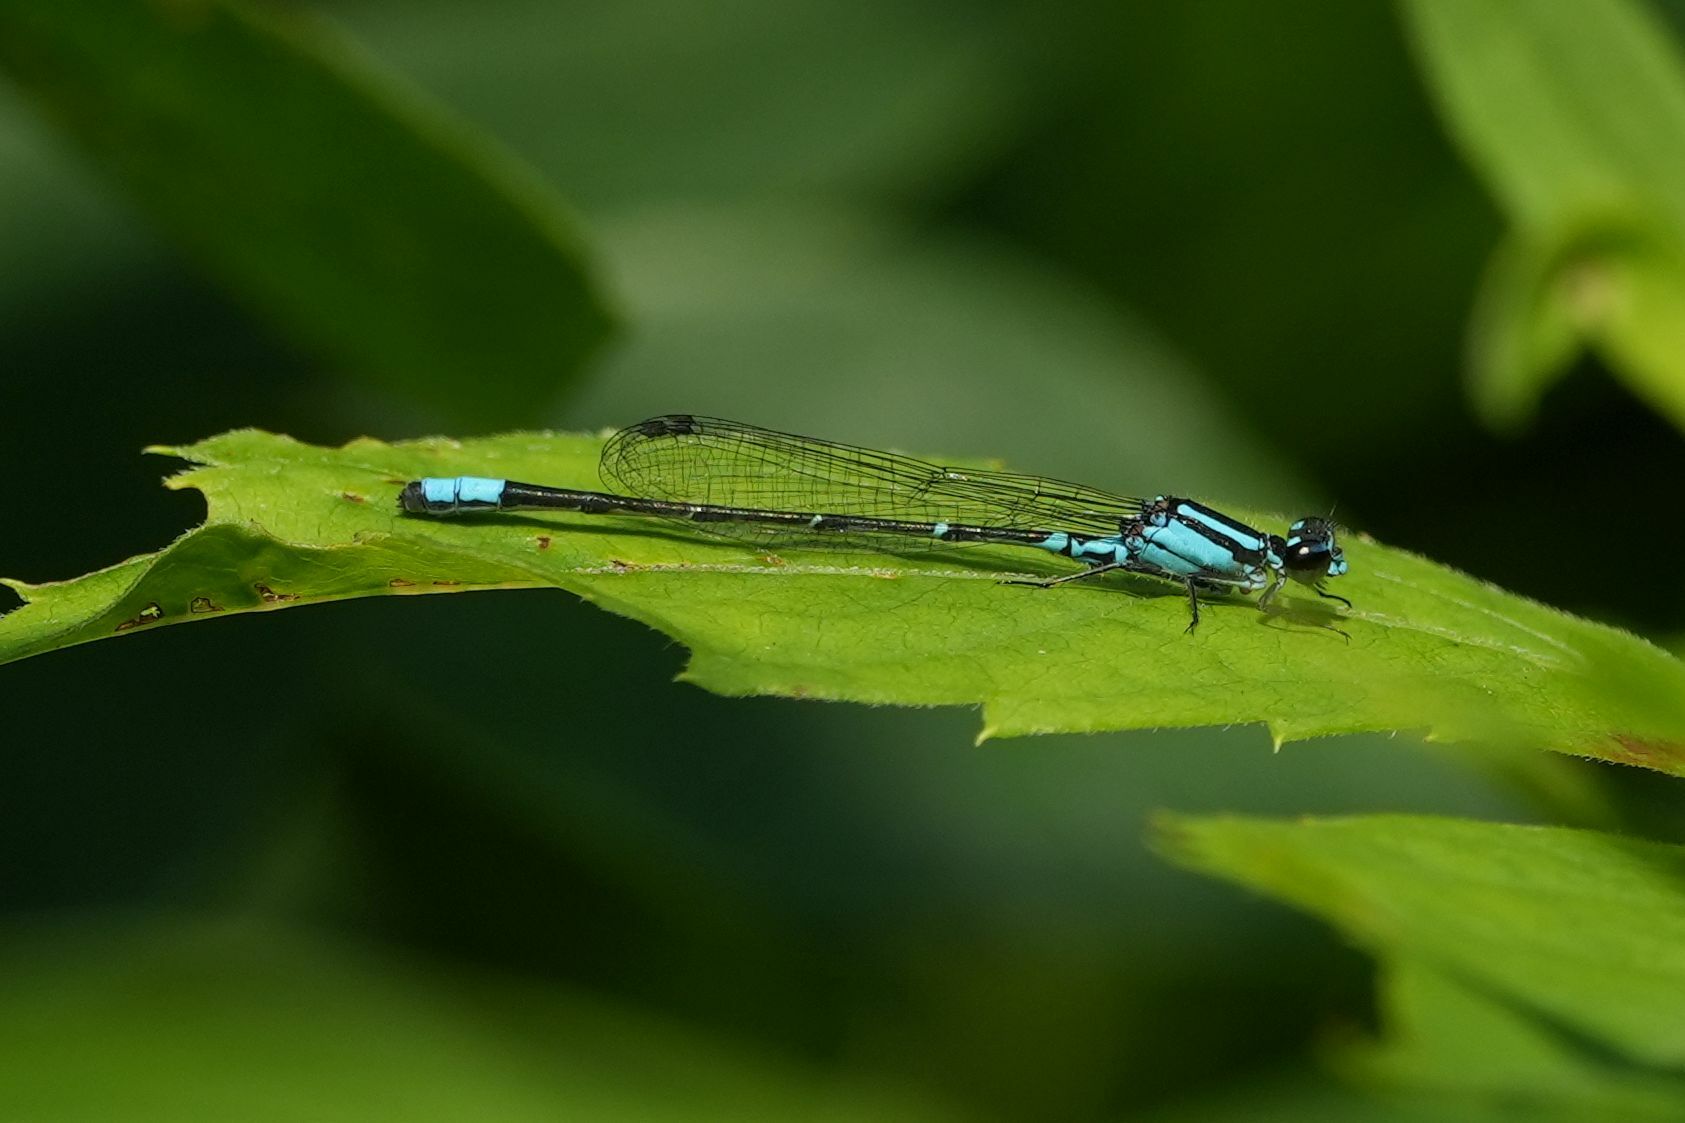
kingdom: Animalia
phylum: Arthropoda
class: Insecta
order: Odonata
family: Coenagrionidae
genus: Enallagma
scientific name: Enallagma geminatum
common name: Skimming bluet
